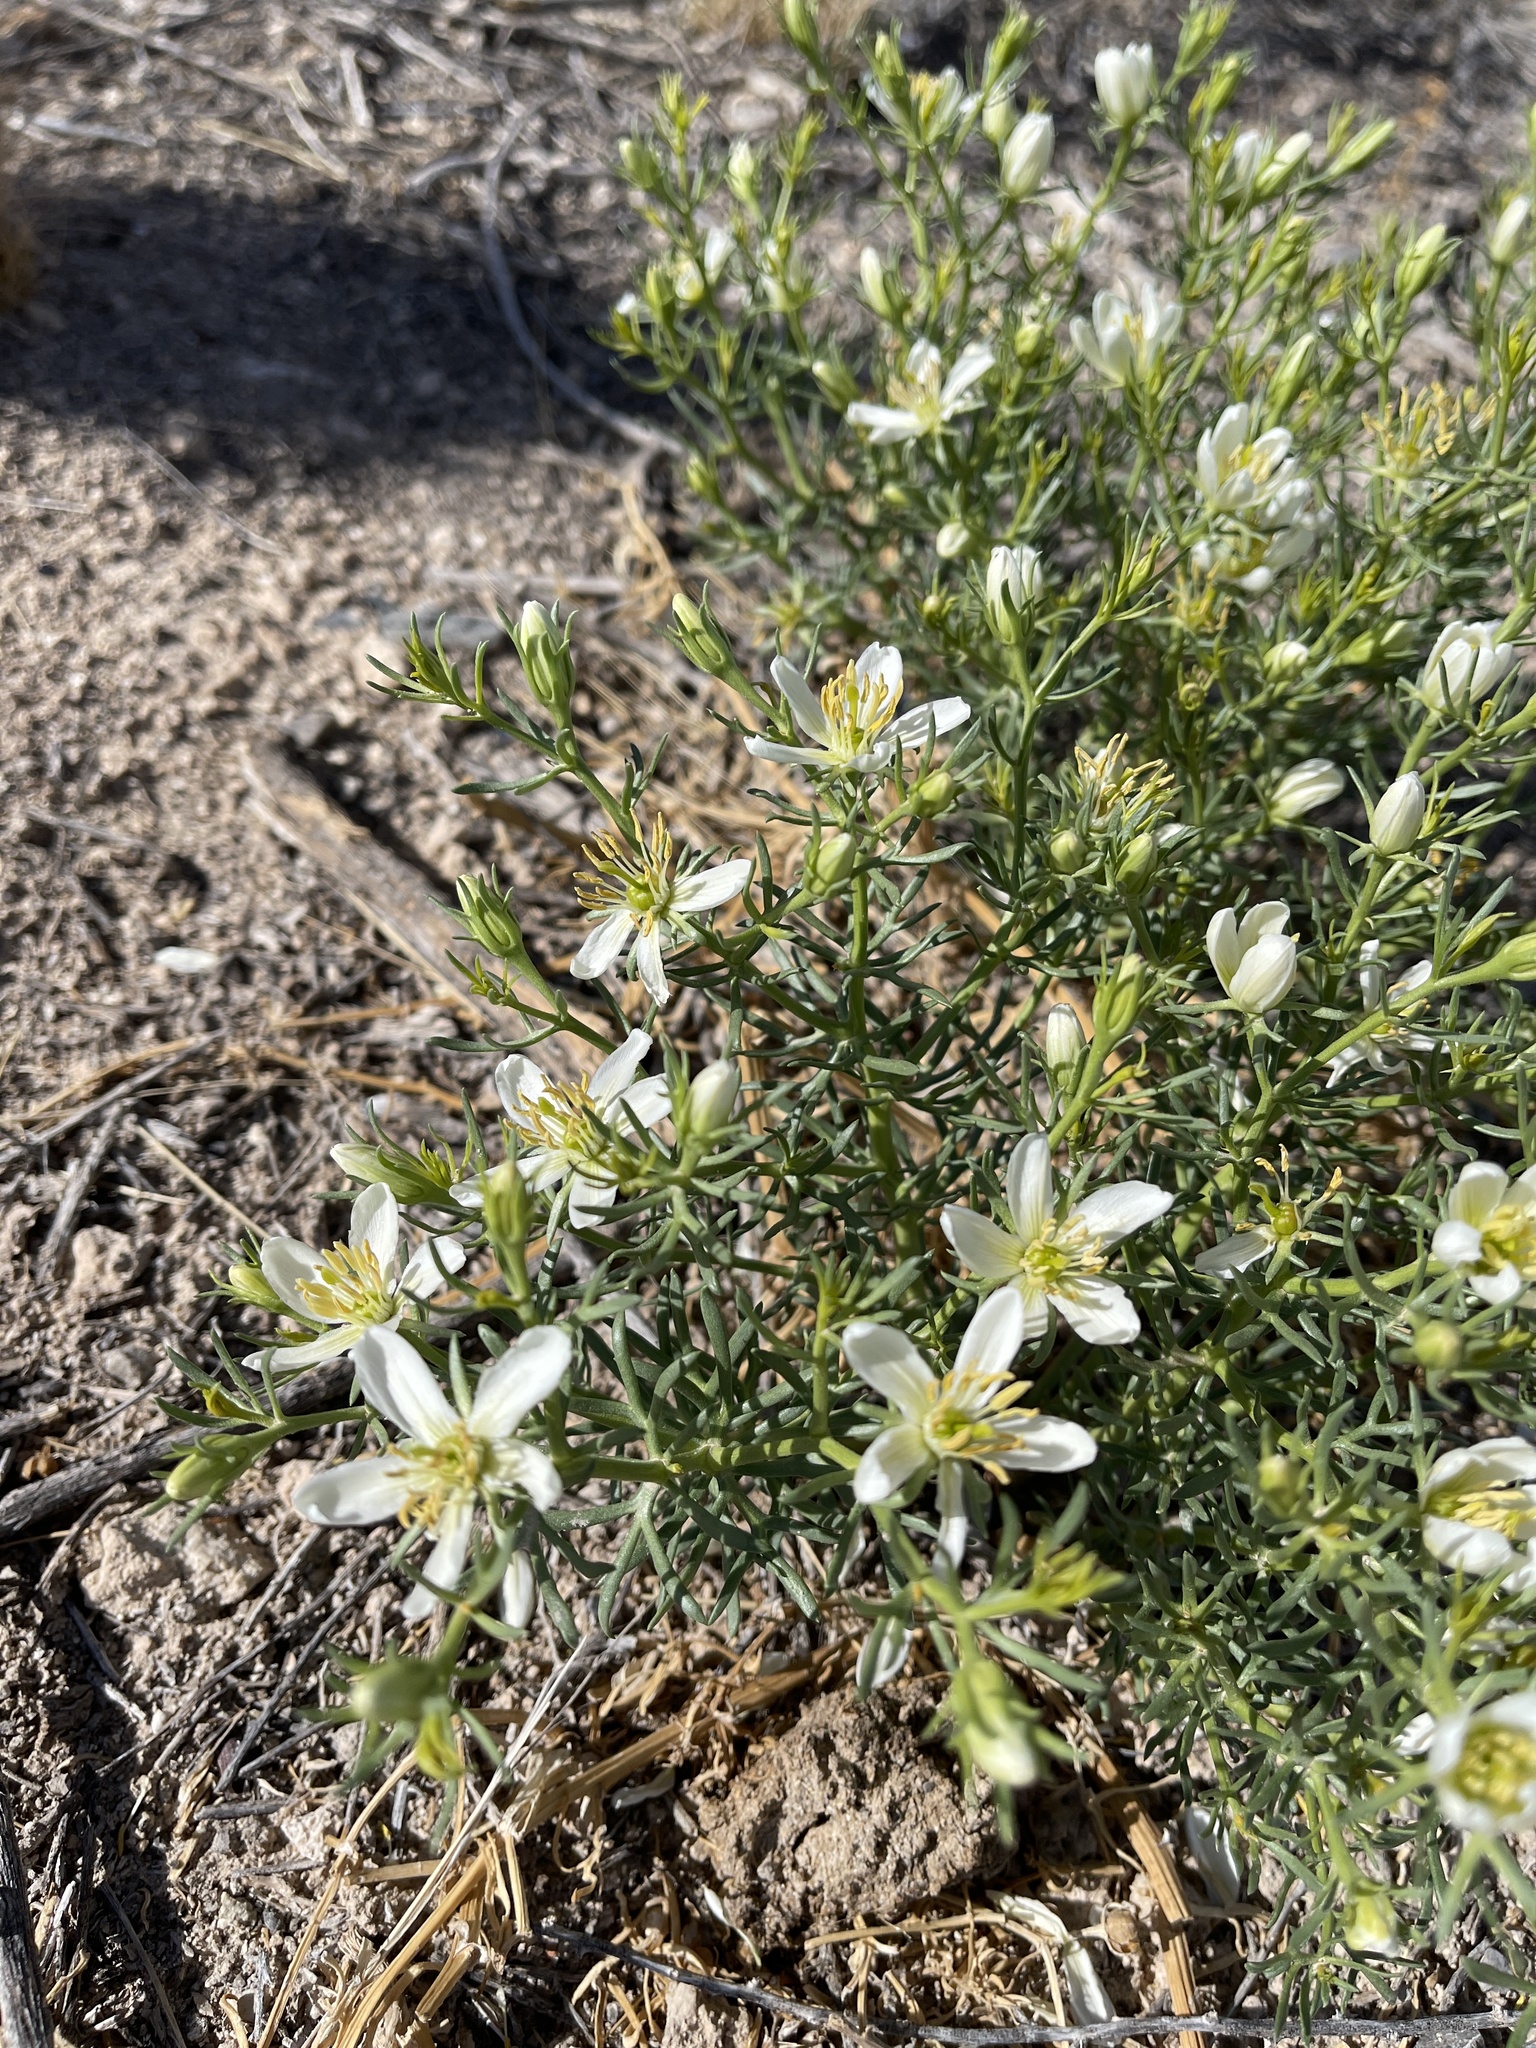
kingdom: Plantae
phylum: Tracheophyta
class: Magnoliopsida
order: Sapindales
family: Tetradiclidaceae
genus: Peganum
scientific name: Peganum harmala
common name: Harmal peganum
